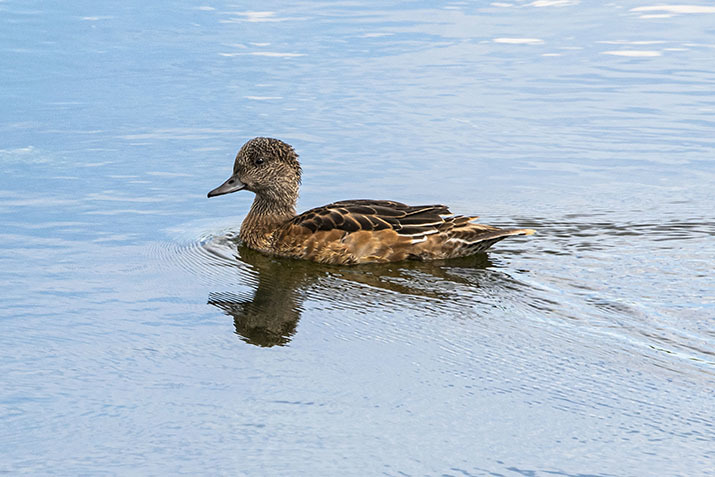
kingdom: Animalia
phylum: Chordata
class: Aves
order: Anseriformes
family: Anatidae
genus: Mareca
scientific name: Mareca americana
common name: American wigeon
